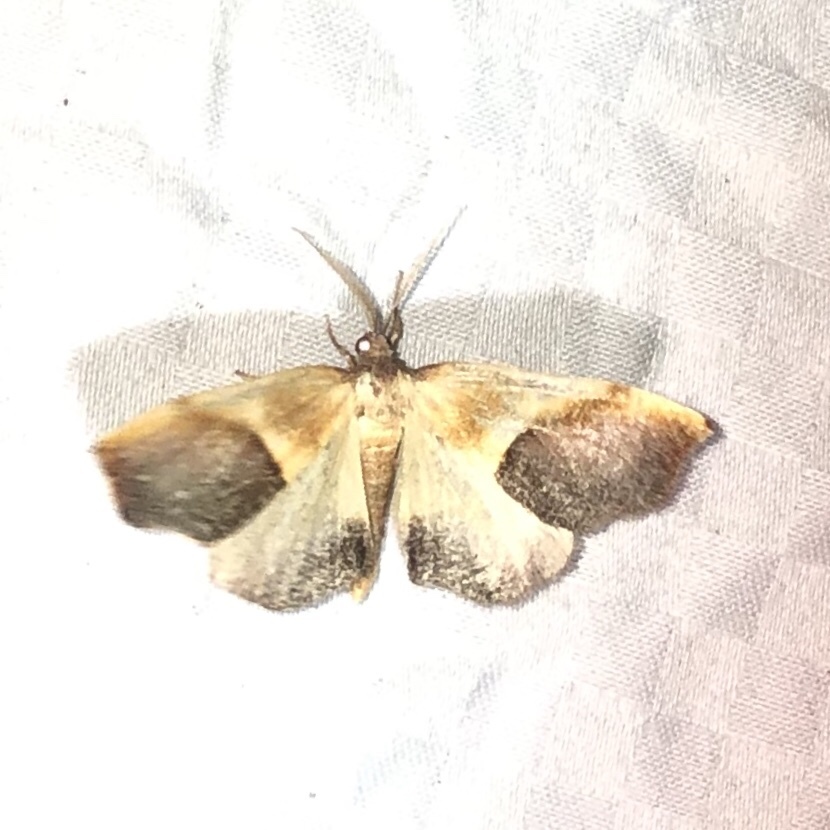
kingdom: Animalia
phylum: Arthropoda
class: Insecta
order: Lepidoptera
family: Geometridae
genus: Plagodis
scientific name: Plagodis kuetzingi
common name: Purple plagodis
